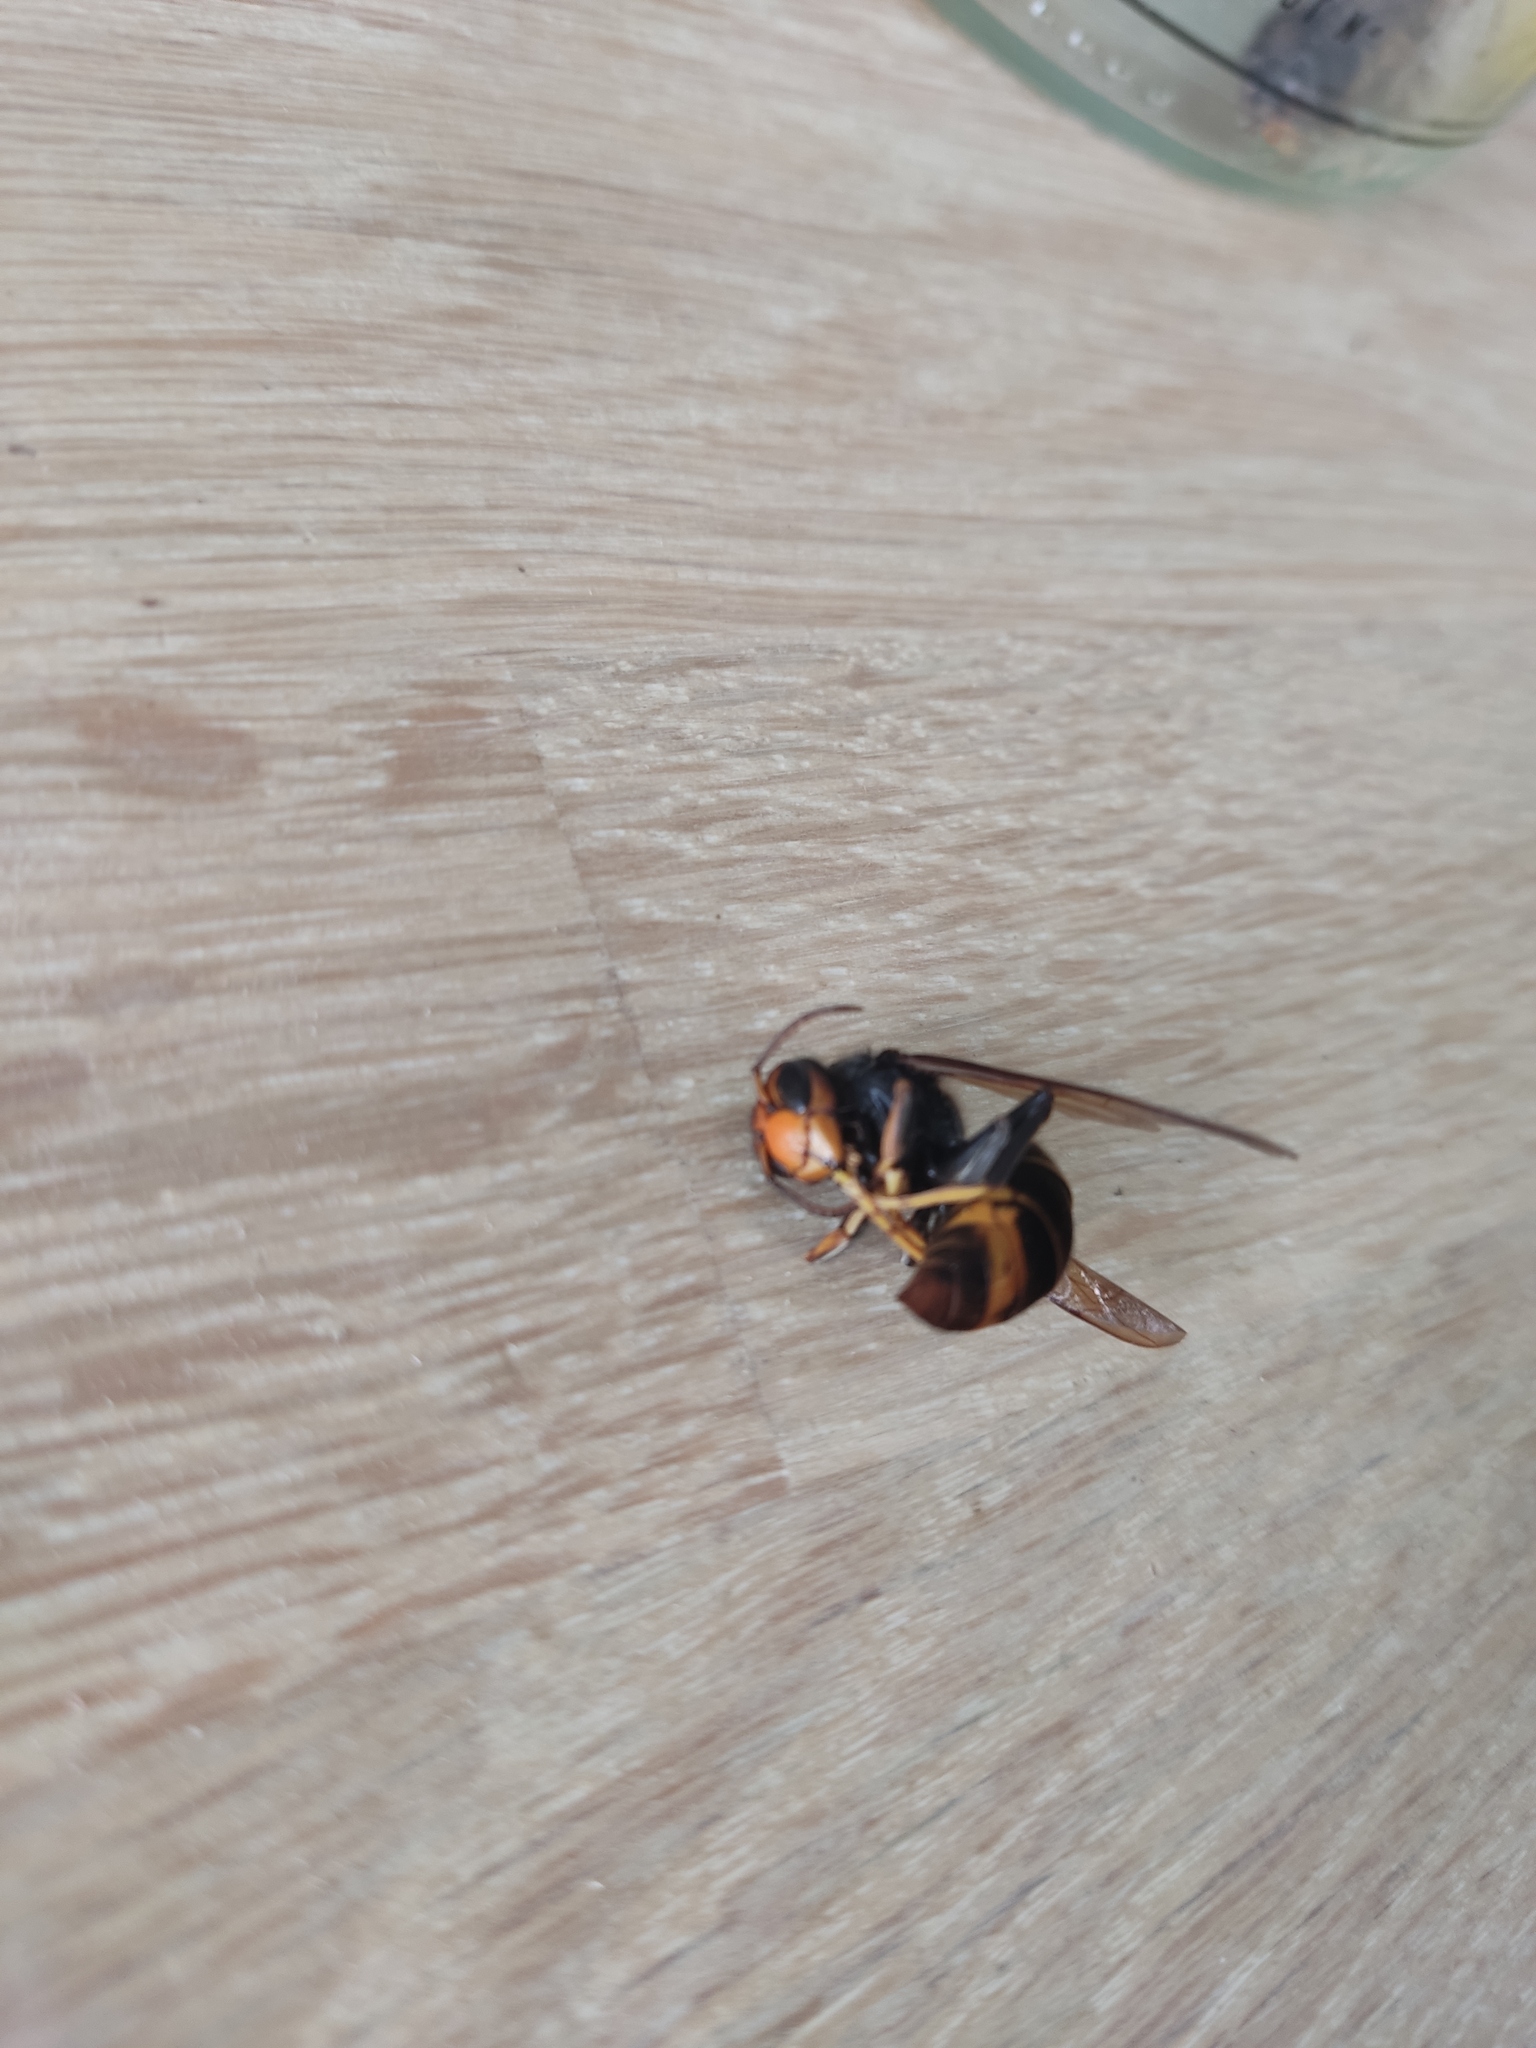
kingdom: Animalia
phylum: Arthropoda
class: Insecta
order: Hymenoptera
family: Vespidae
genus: Vespa
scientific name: Vespa velutina
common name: Asian hornet
